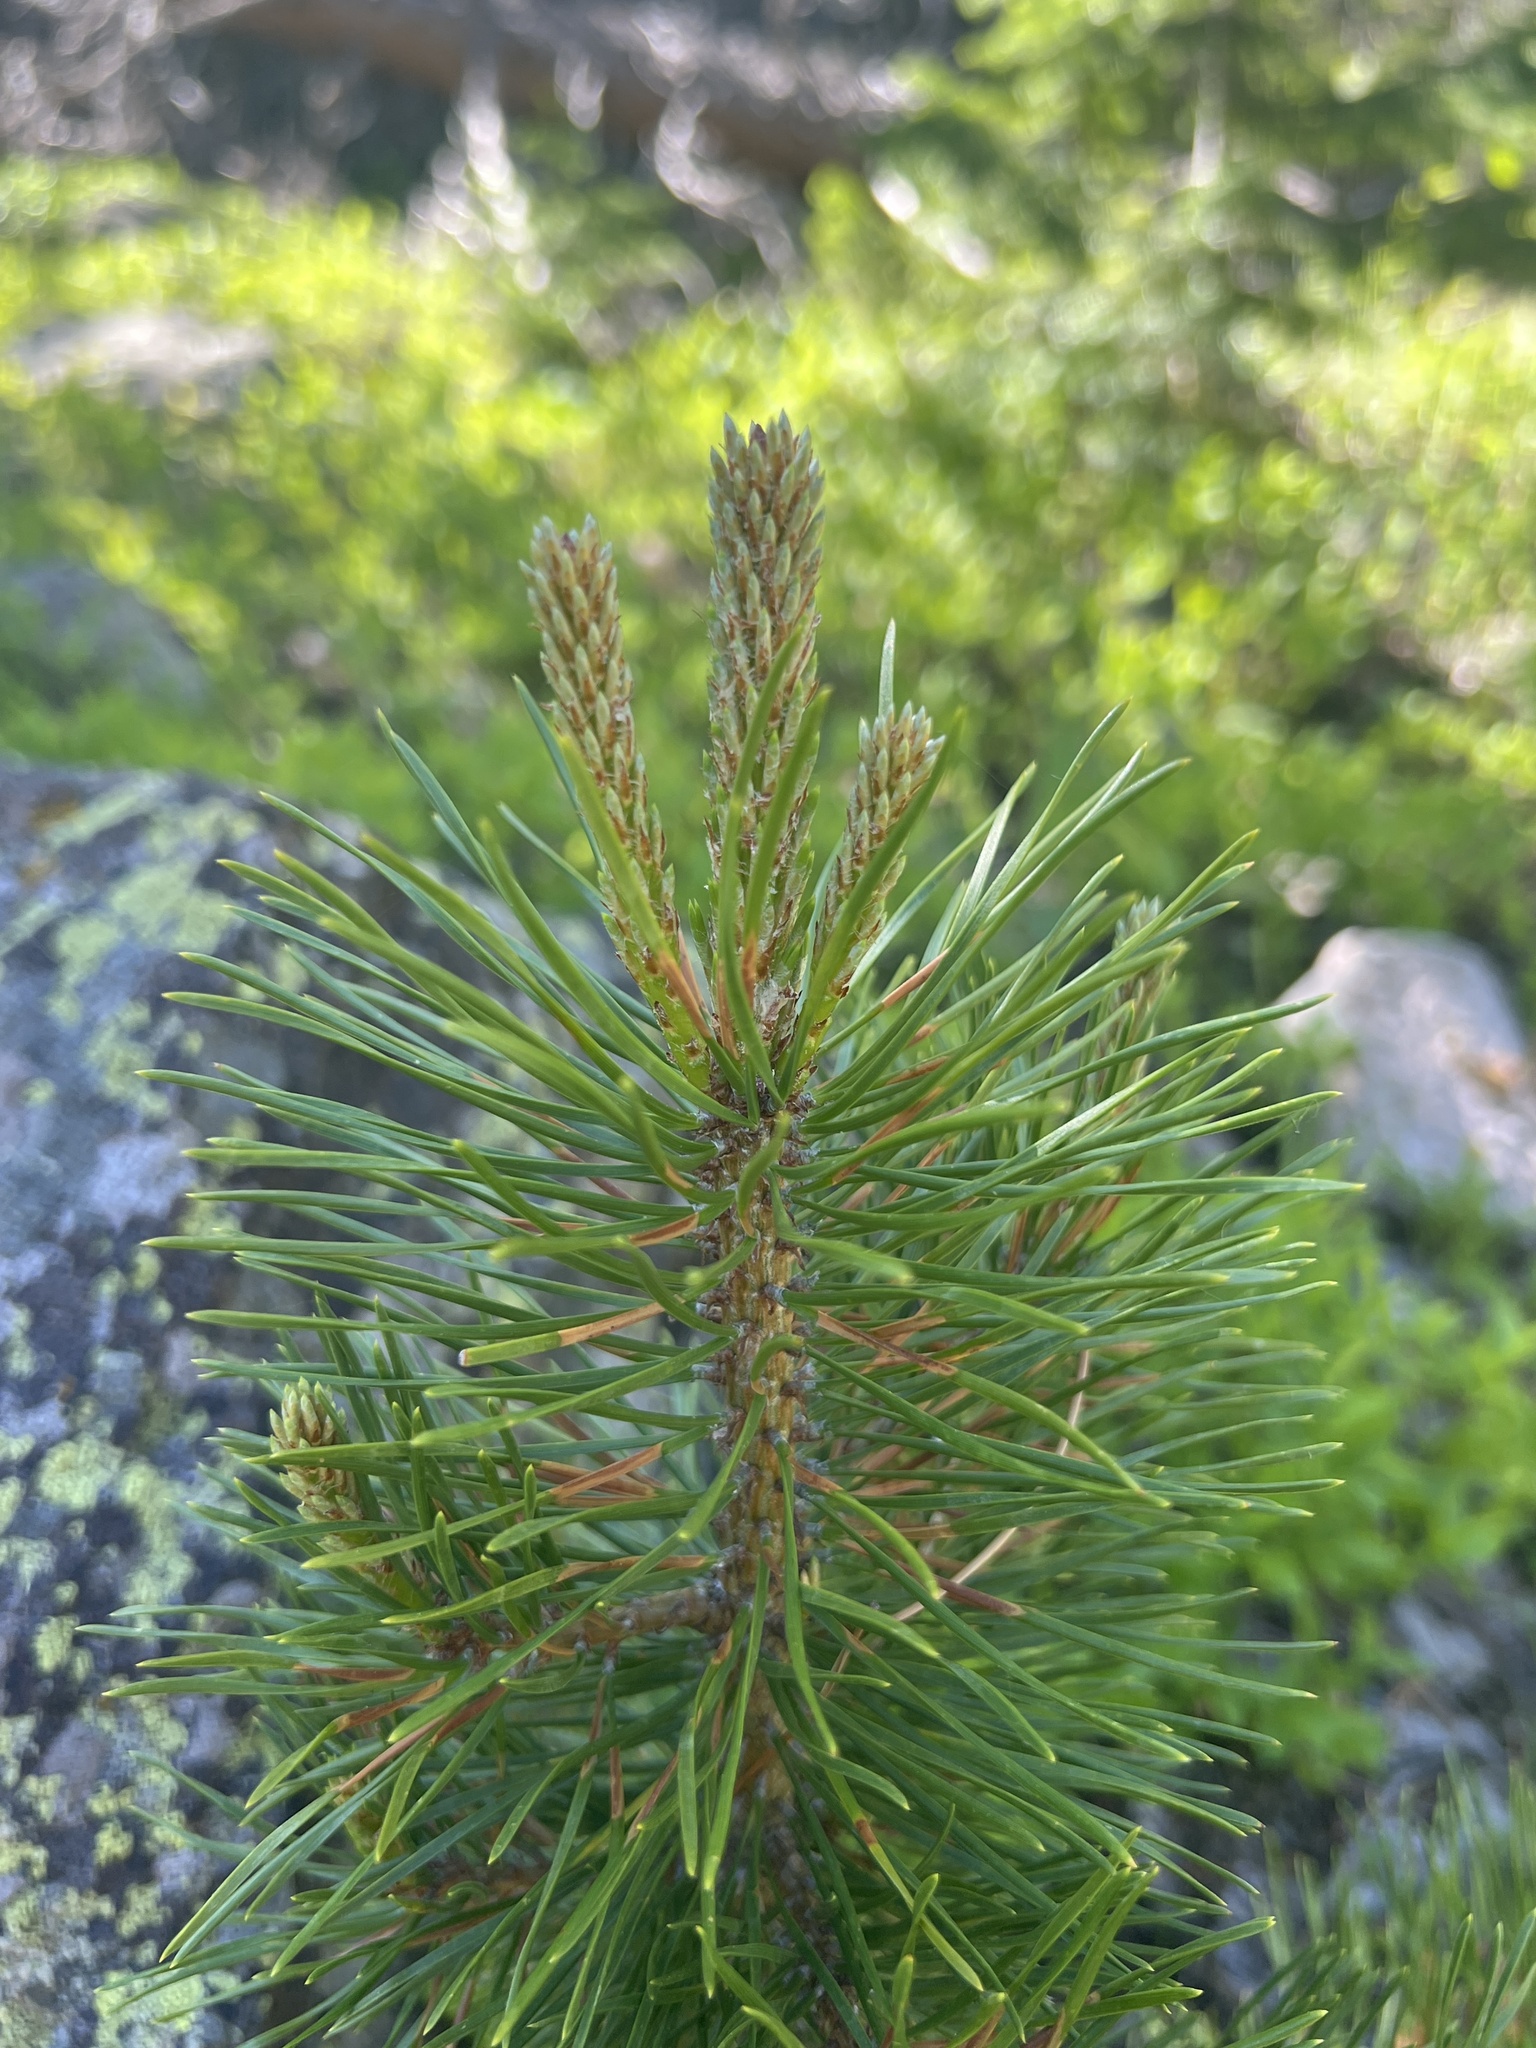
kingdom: Plantae
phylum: Tracheophyta
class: Pinopsida
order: Pinales
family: Pinaceae
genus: Pinus
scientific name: Pinus contorta
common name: Lodgepole pine
